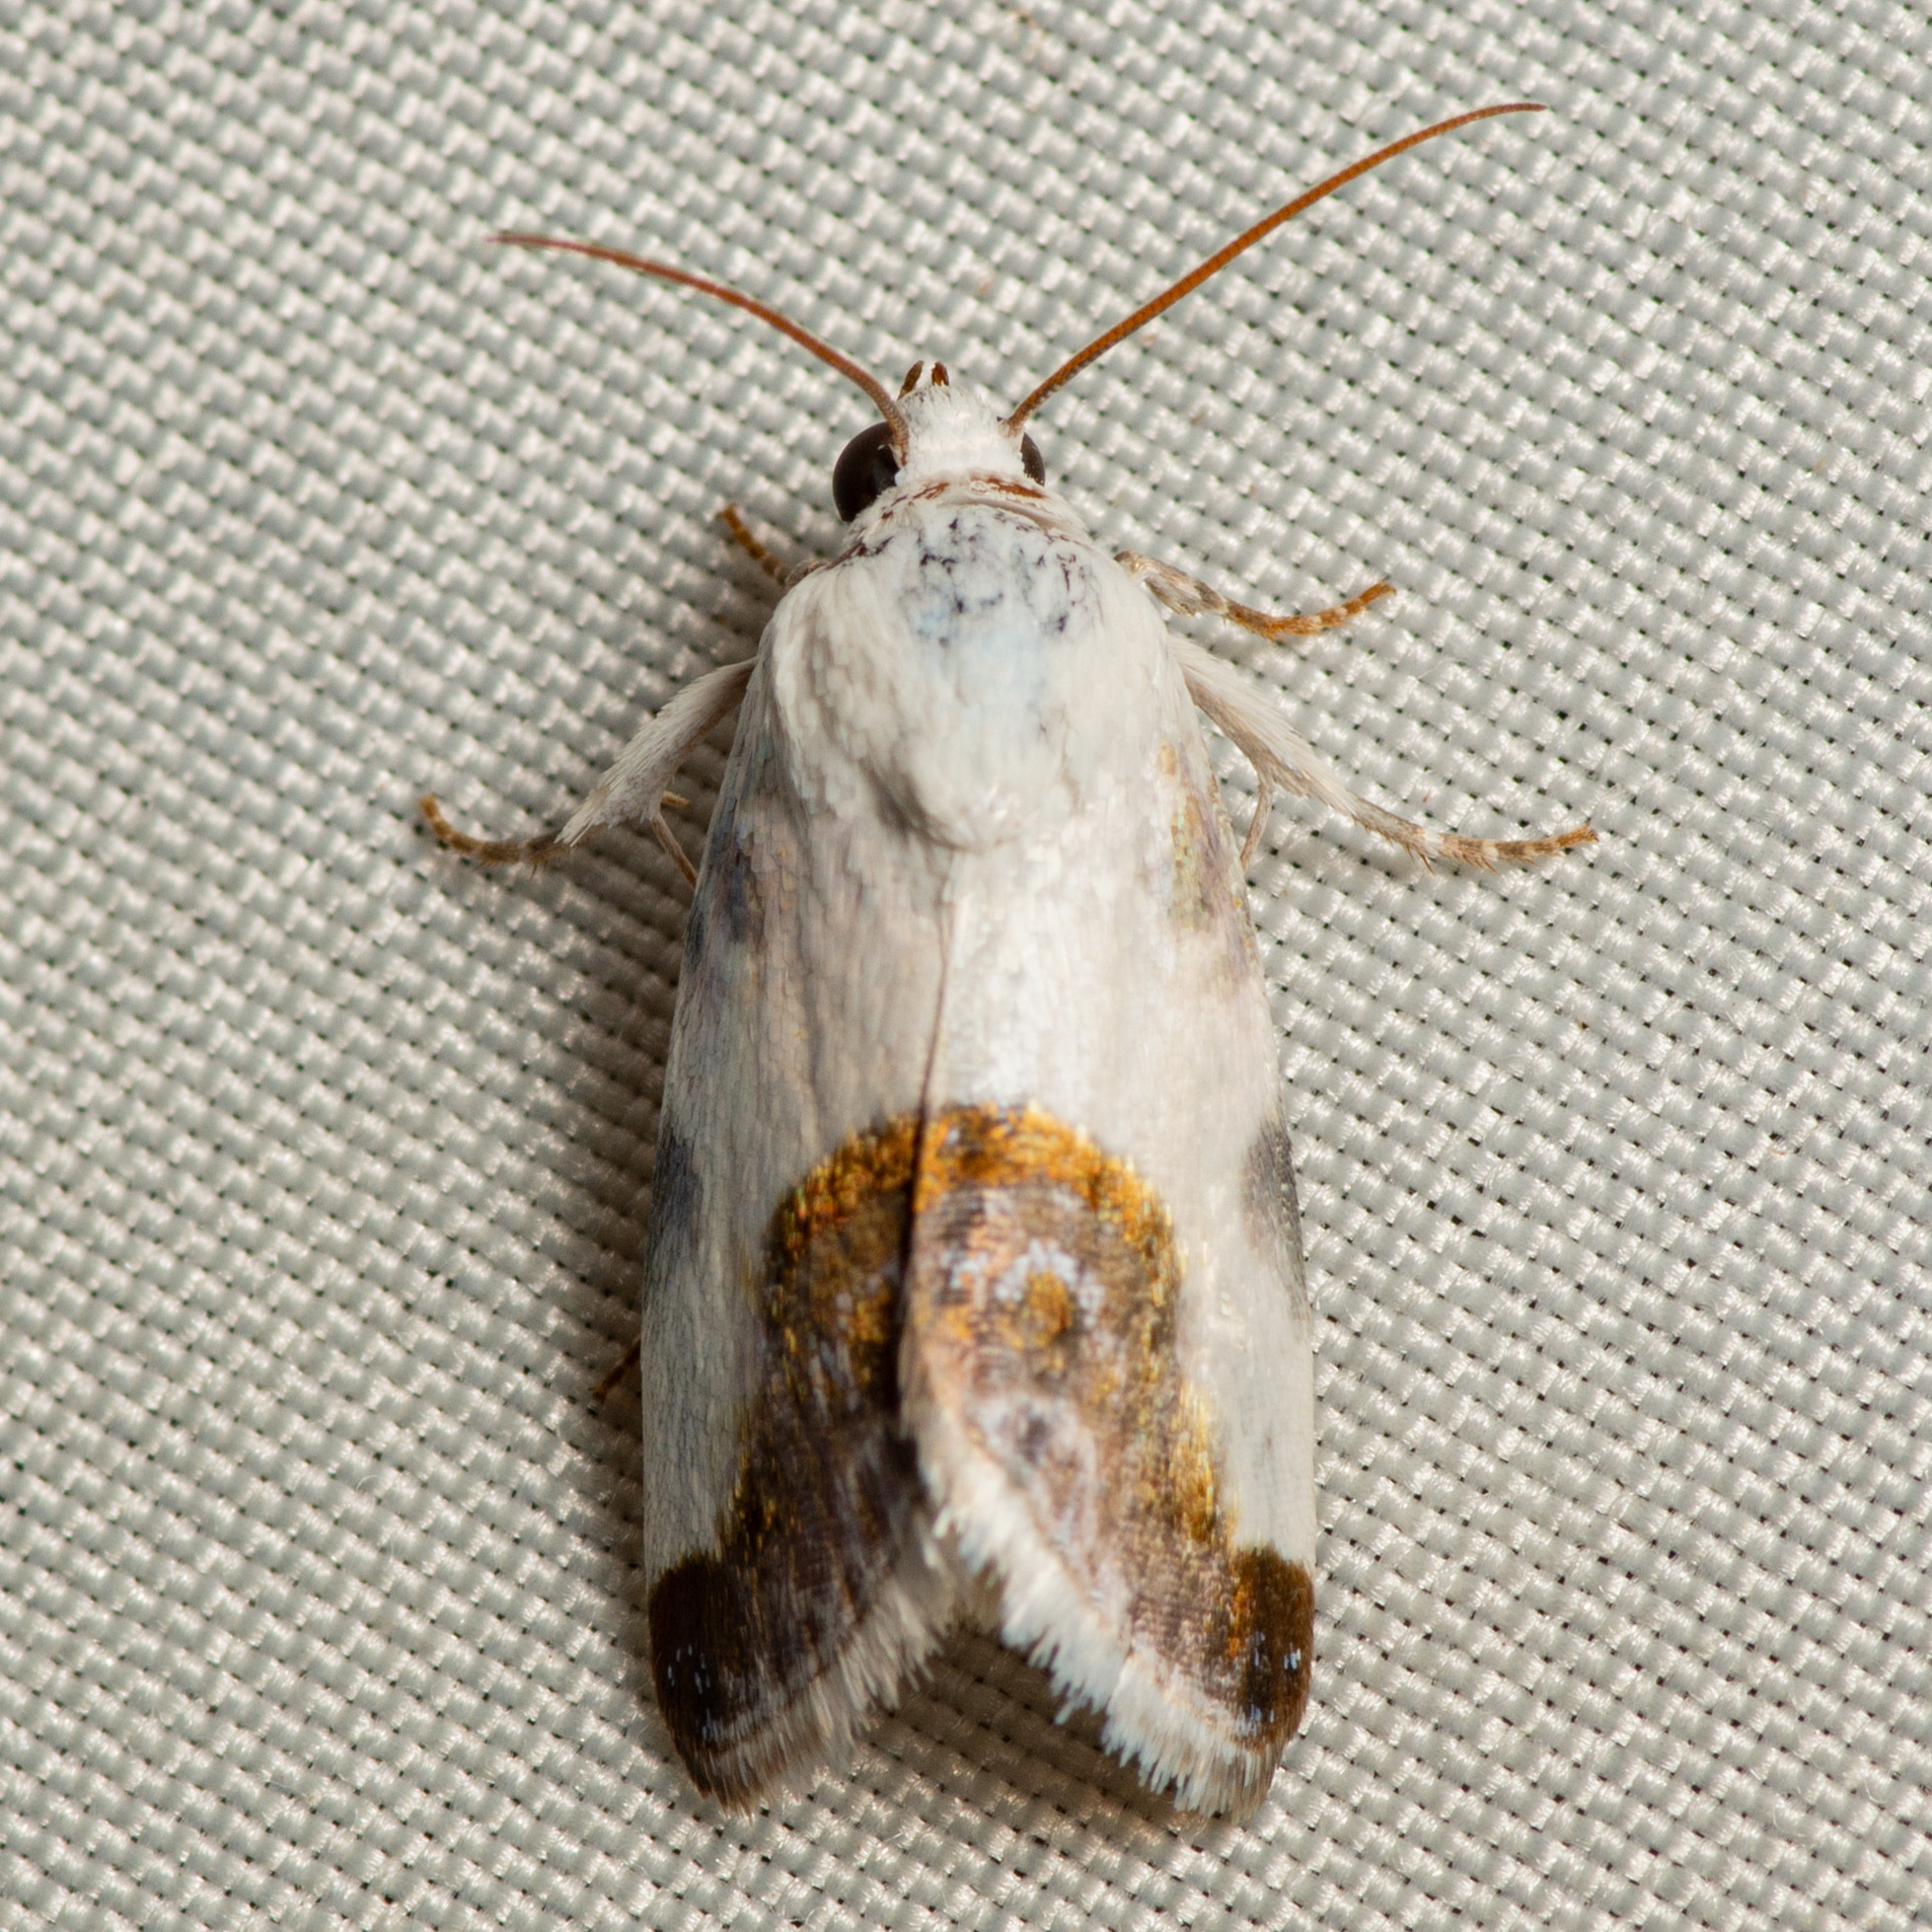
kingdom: Animalia
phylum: Arthropoda
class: Insecta
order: Lepidoptera
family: Noctuidae
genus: Acontia
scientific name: Acontia cretata
